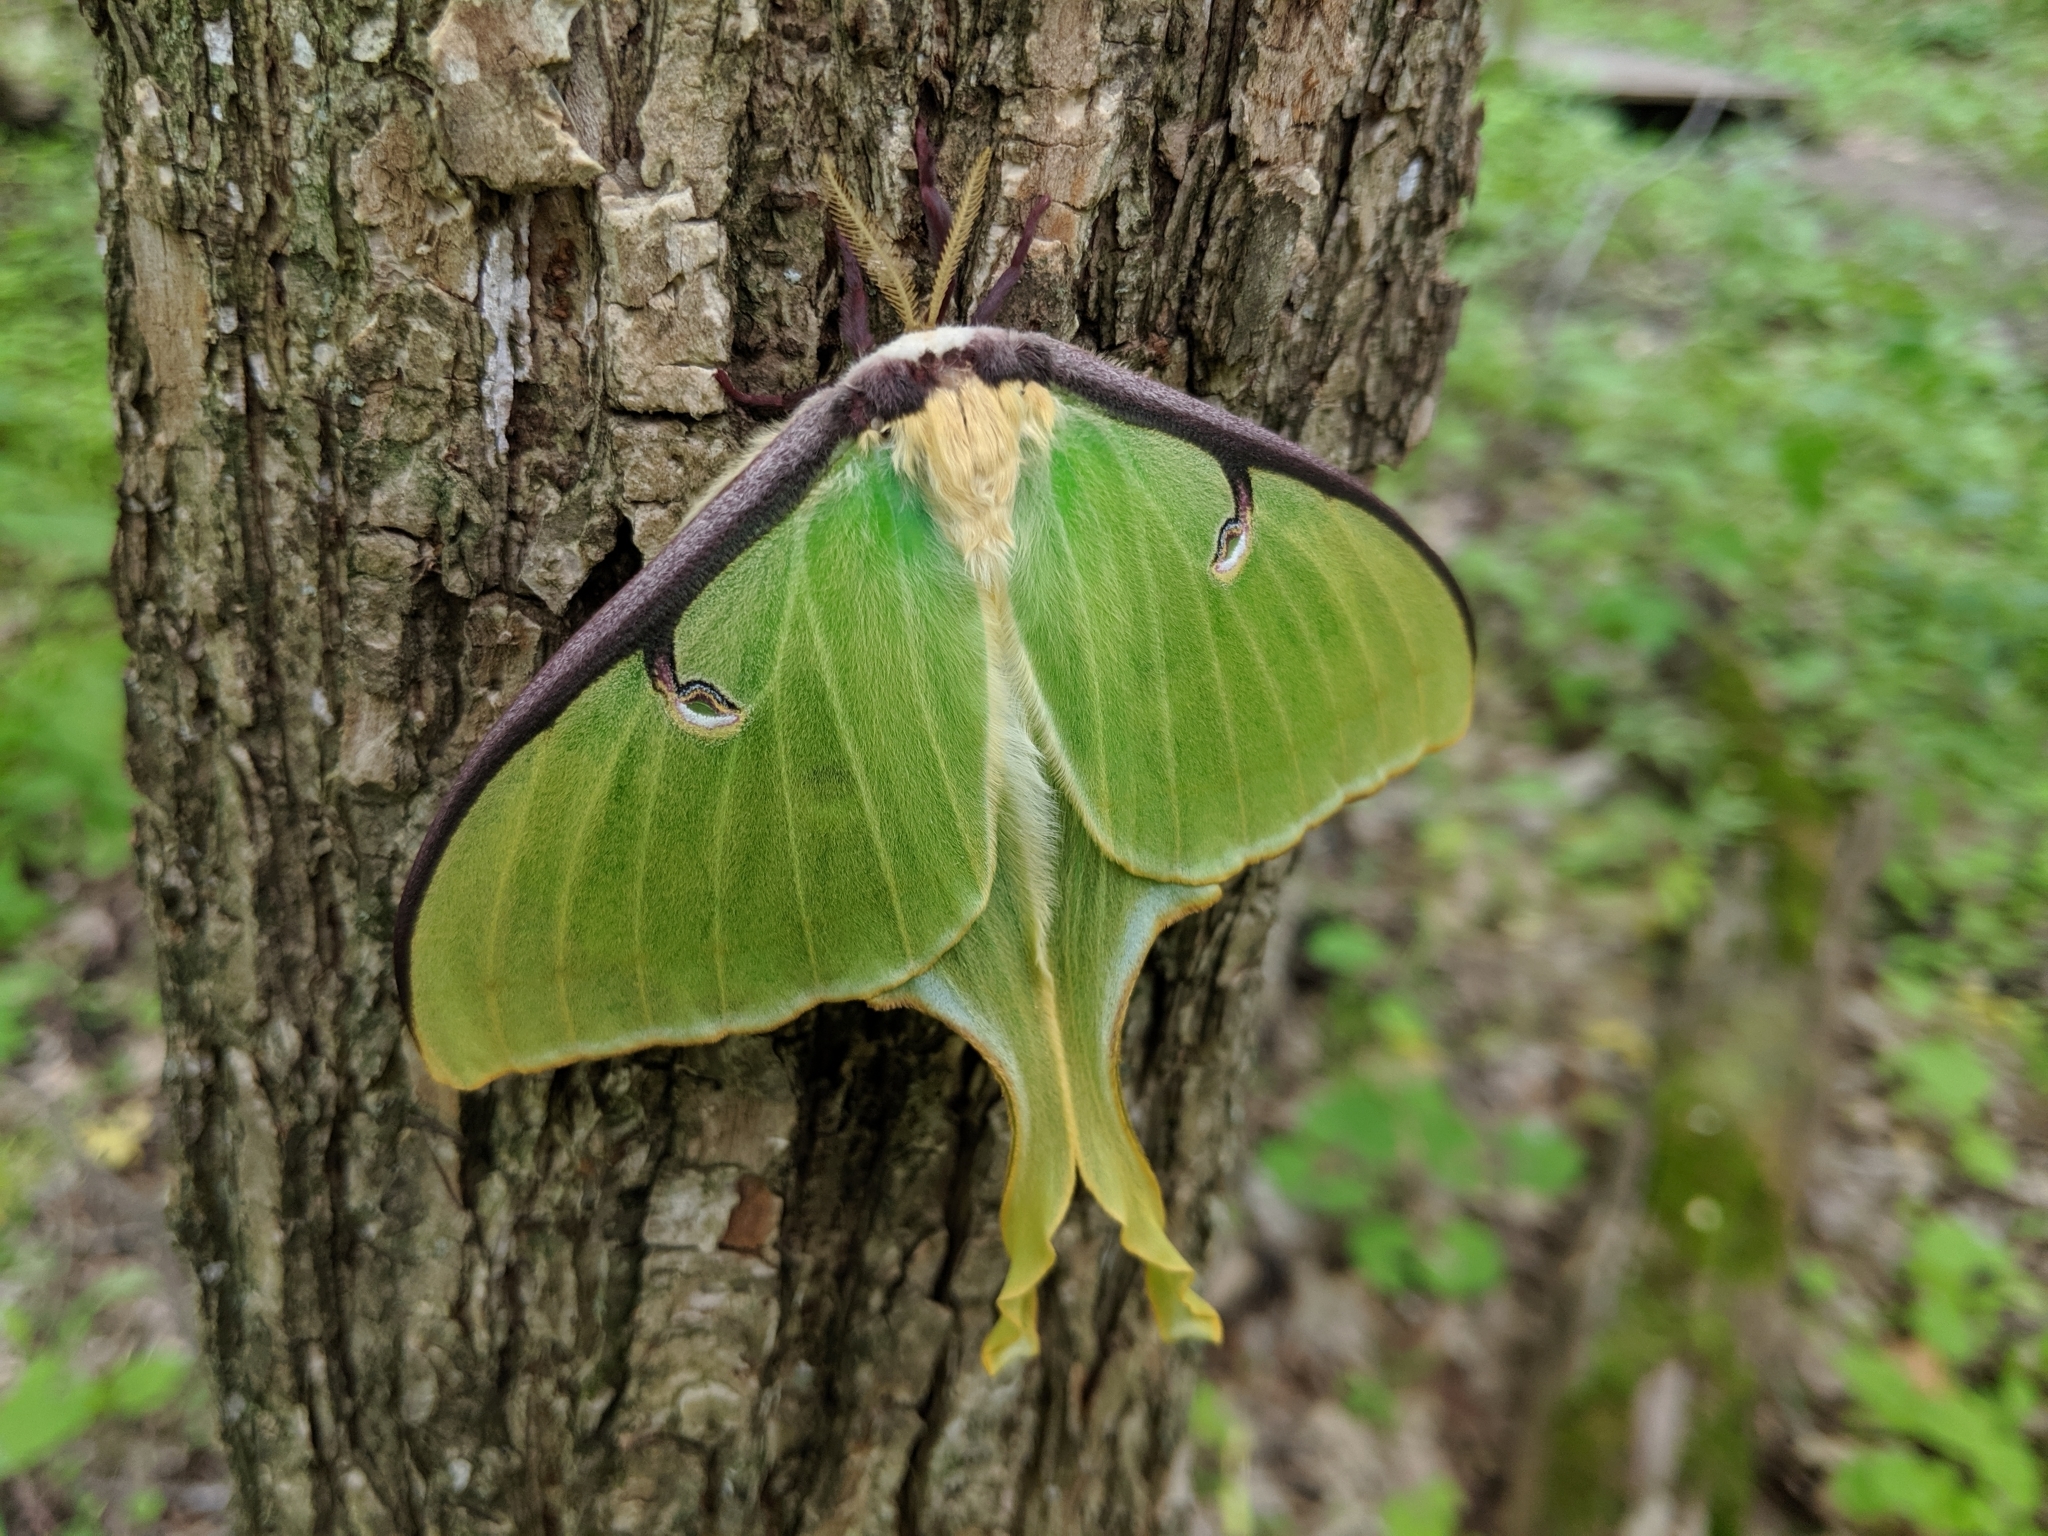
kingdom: Animalia
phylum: Arthropoda
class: Insecta
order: Lepidoptera
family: Saturniidae
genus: Actias
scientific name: Actias luna
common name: Luna moth
